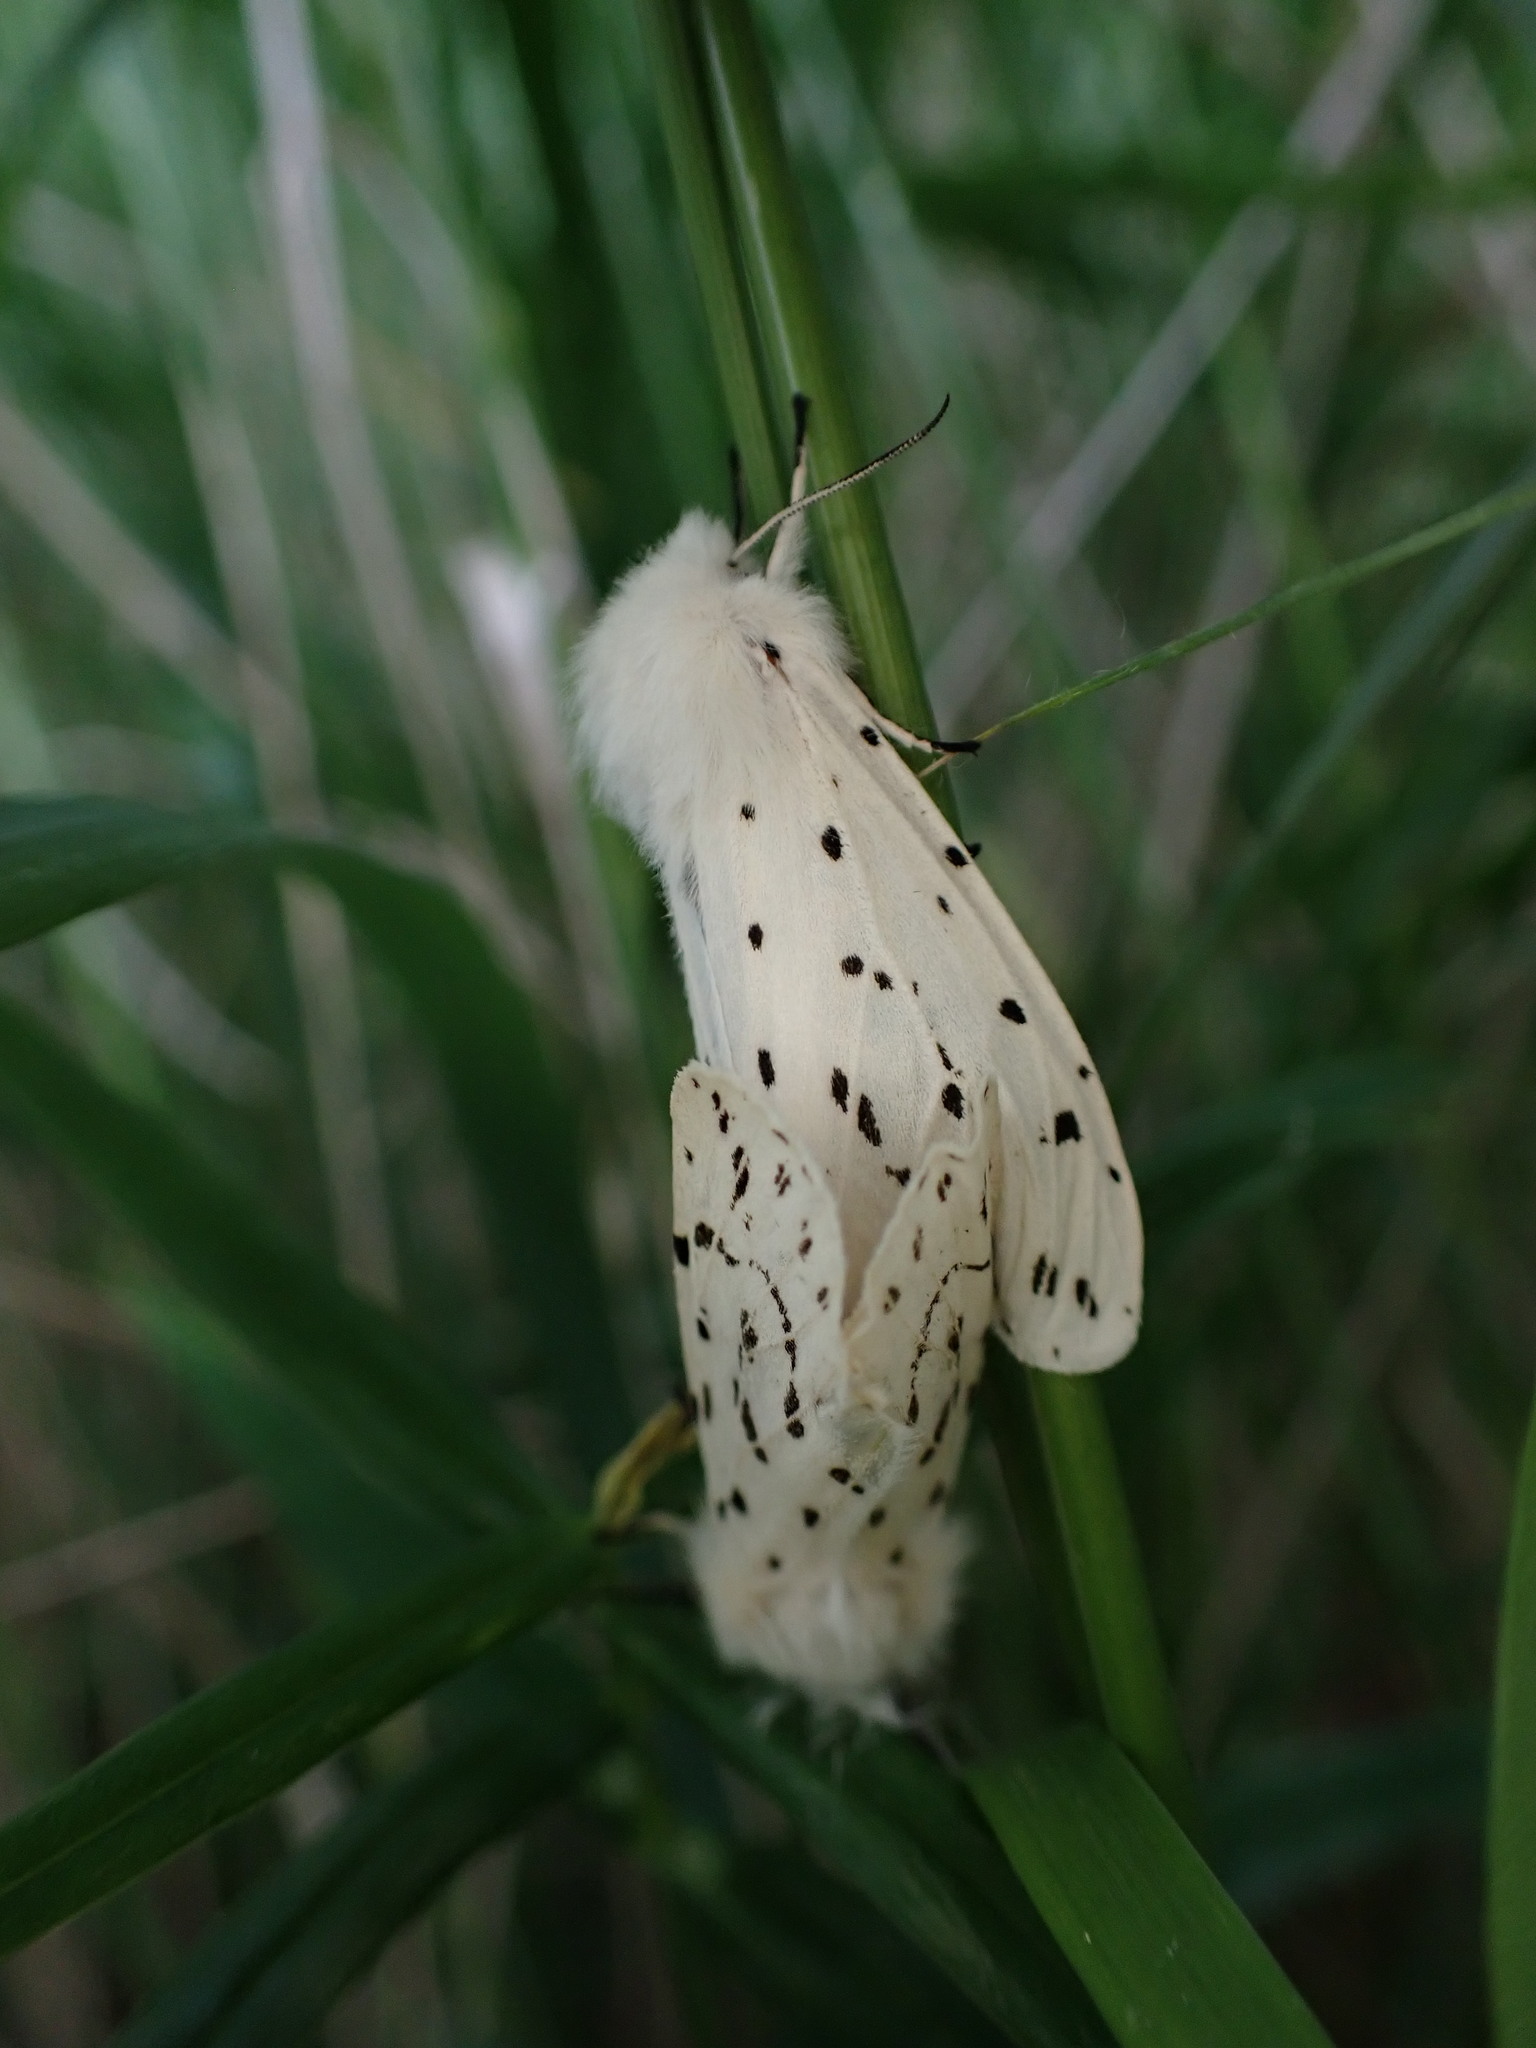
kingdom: Animalia
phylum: Arthropoda
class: Insecta
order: Lepidoptera
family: Erebidae
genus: Spilosoma
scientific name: Spilosoma lubricipeda
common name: White ermine
